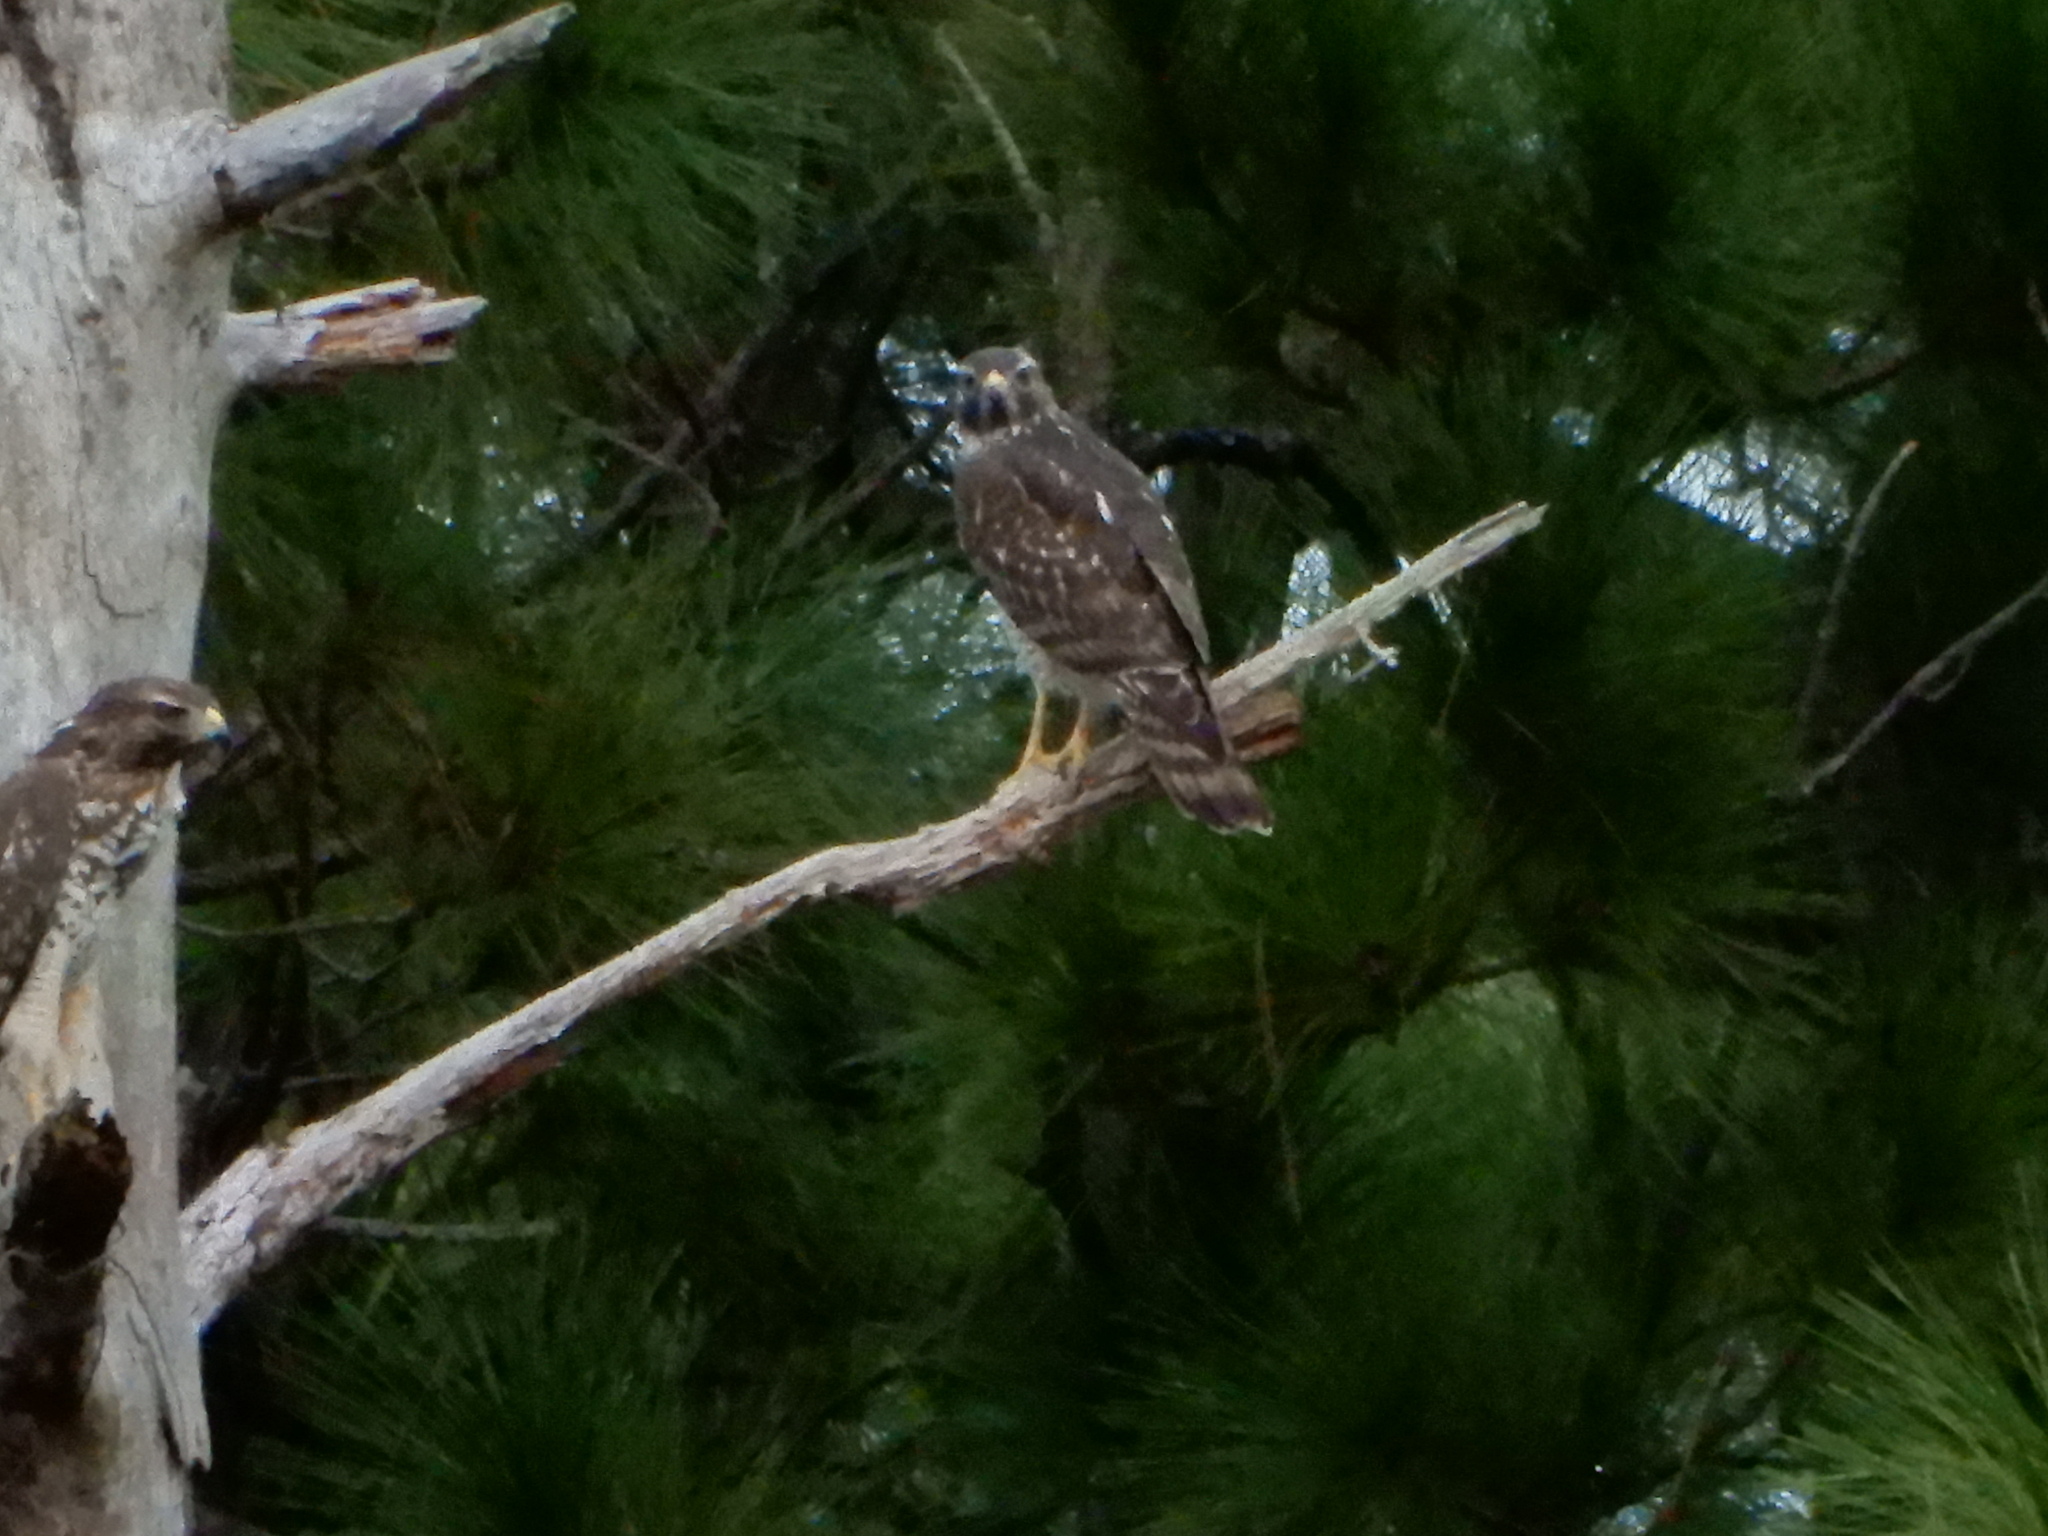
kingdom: Animalia
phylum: Chordata
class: Aves
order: Accipitriformes
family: Accipitridae
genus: Buteo
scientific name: Buteo lineatus
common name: Red-shouldered hawk
